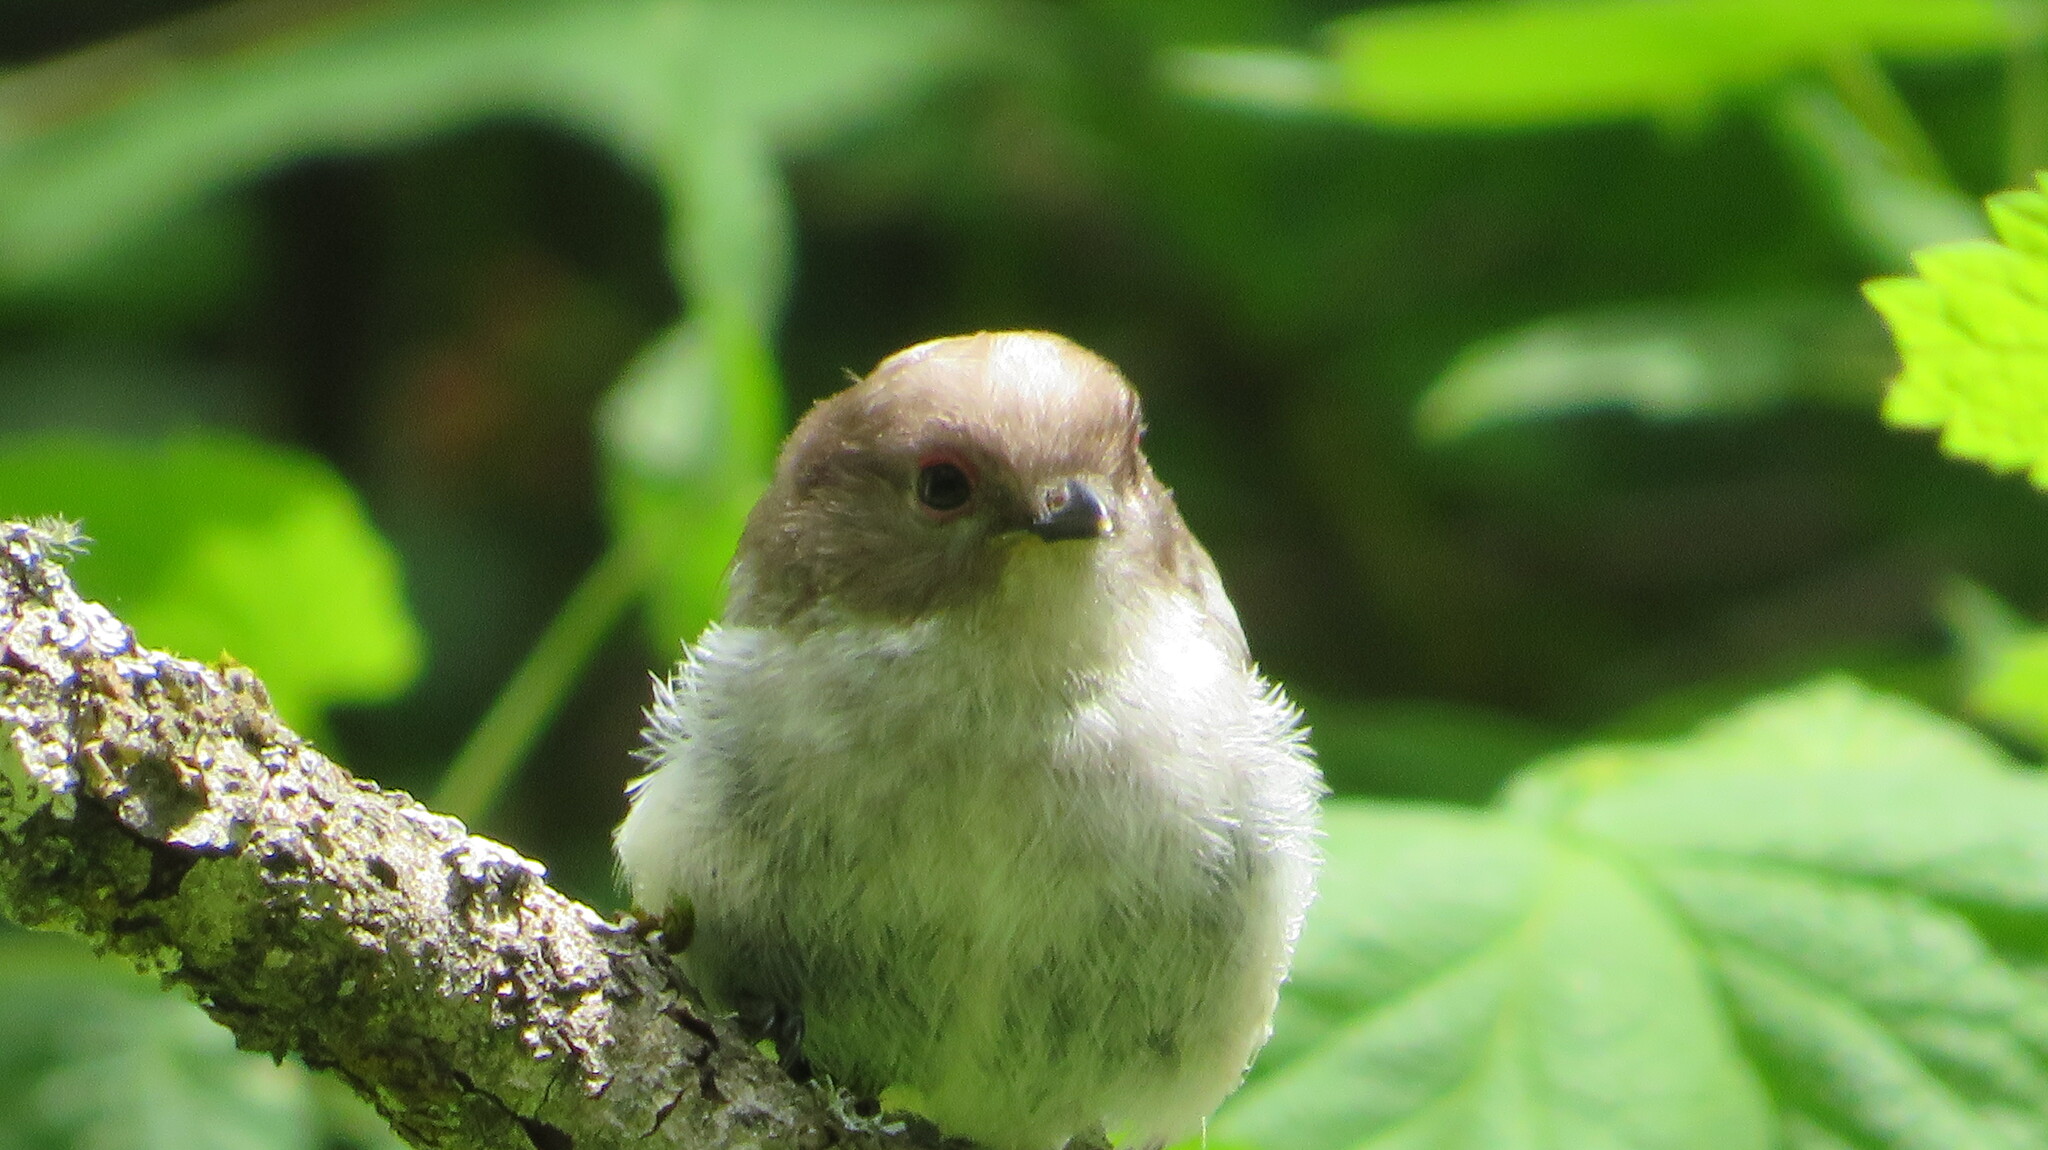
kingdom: Animalia
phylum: Chordata
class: Aves
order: Passeriformes
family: Aegithalidae
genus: Aegithalos
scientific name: Aegithalos caudatus
